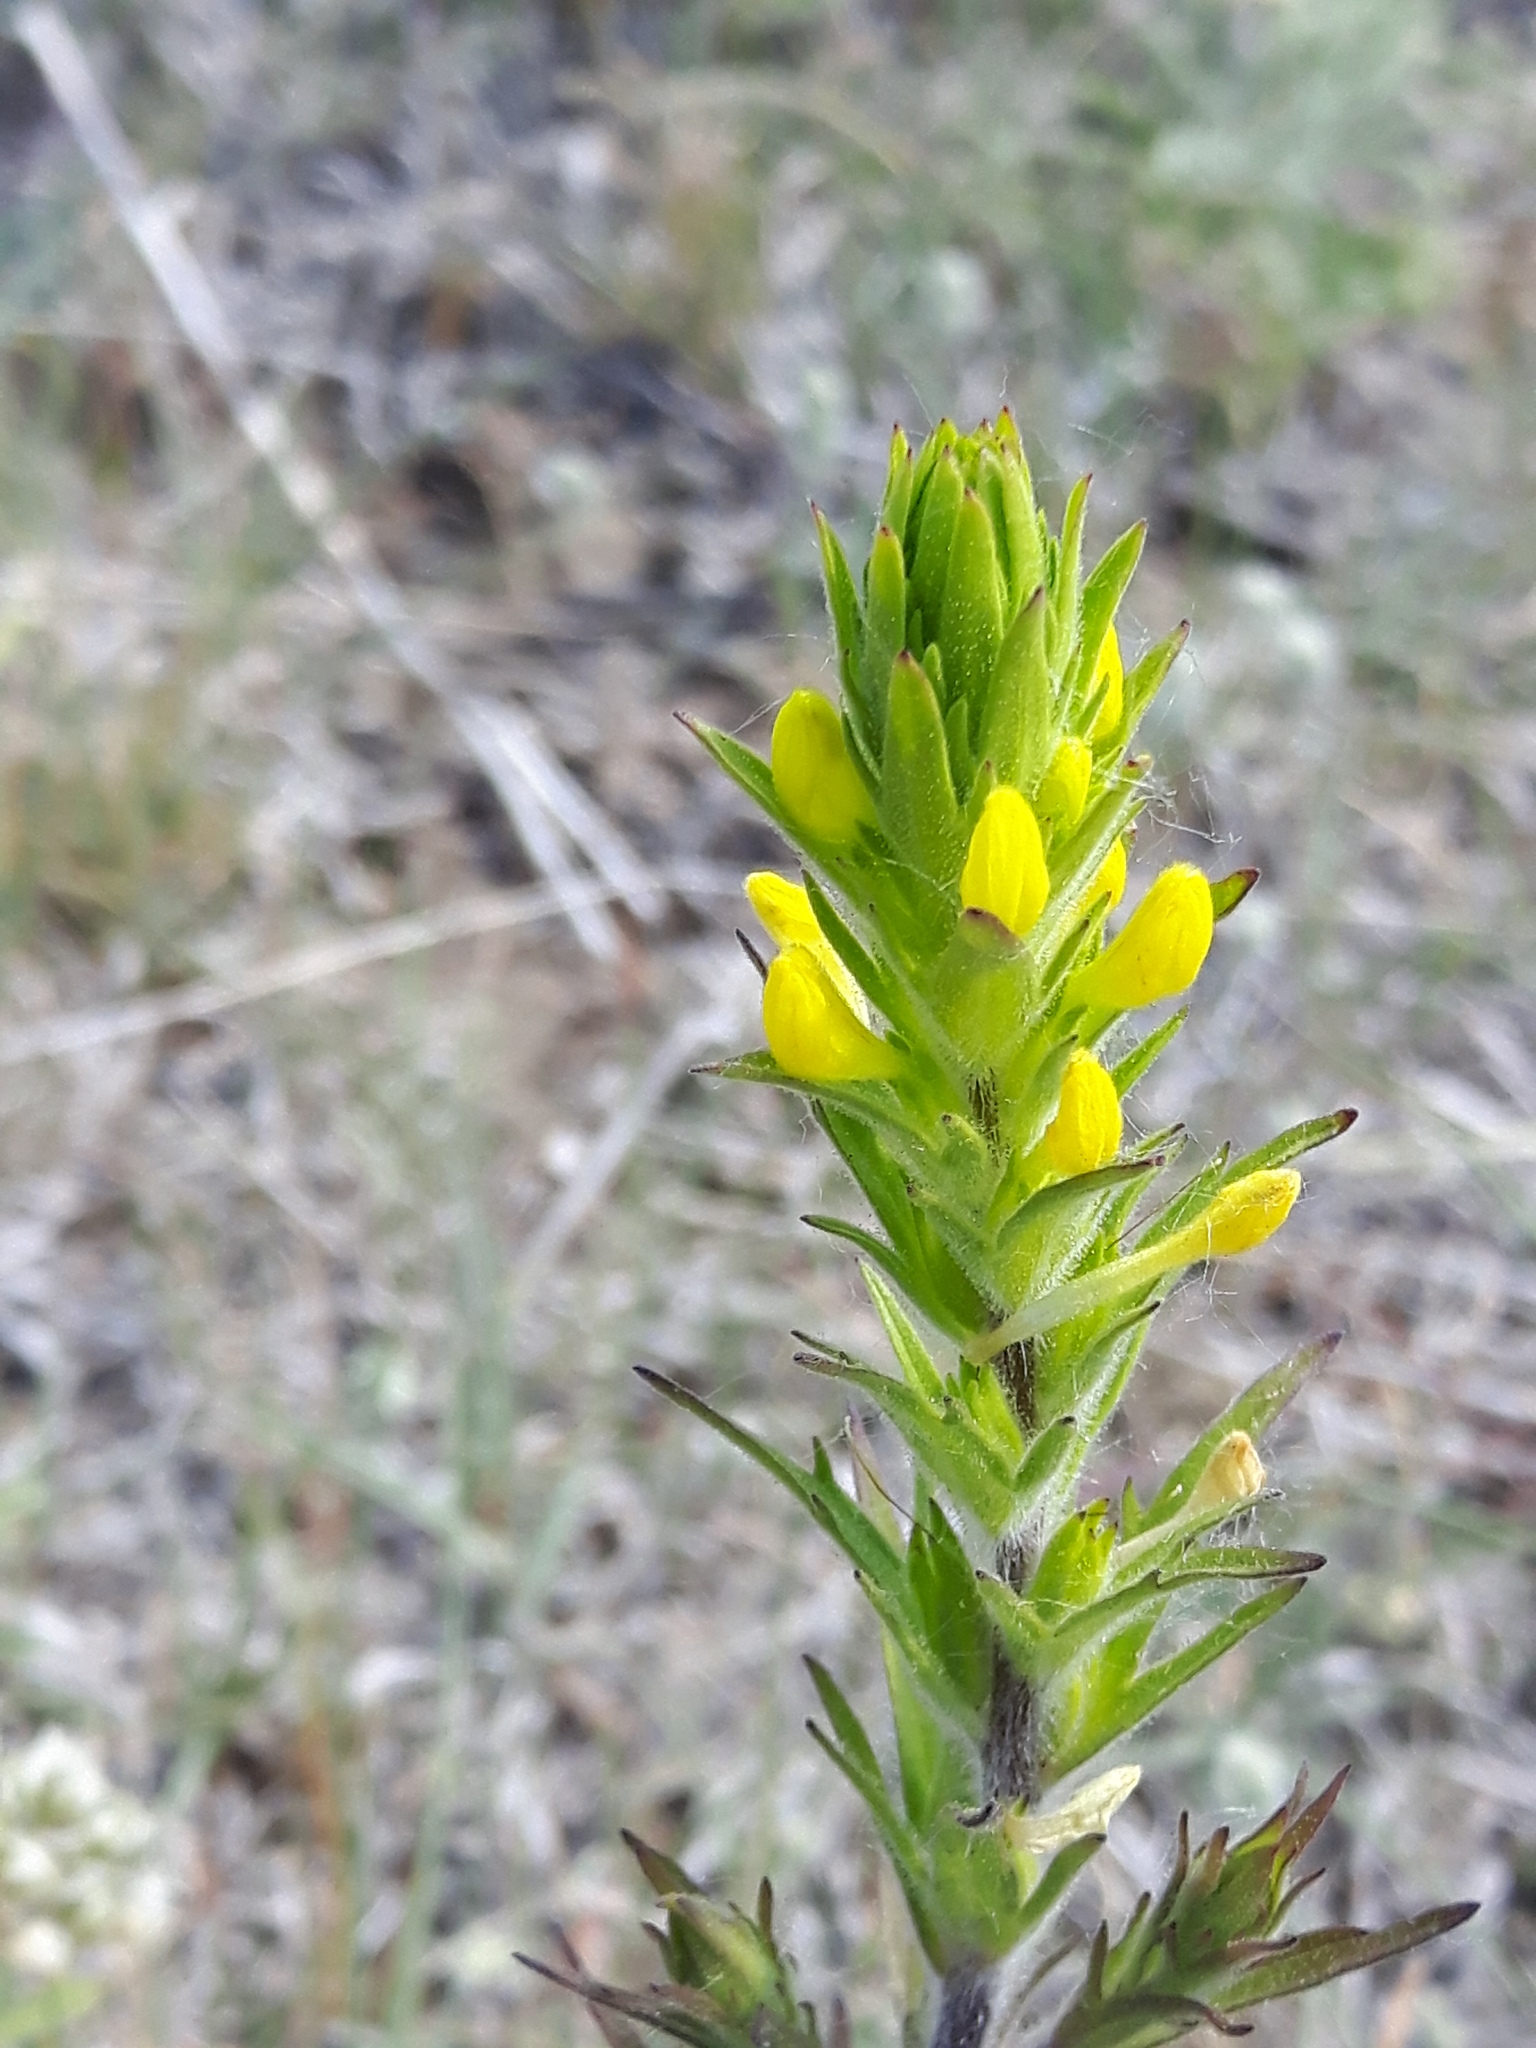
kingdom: Plantae
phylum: Tracheophyta
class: Magnoliopsida
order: Lamiales
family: Orobanchaceae
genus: Orthocarpus
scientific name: Orthocarpus luteus
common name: Golden-tongue owl's-clover
